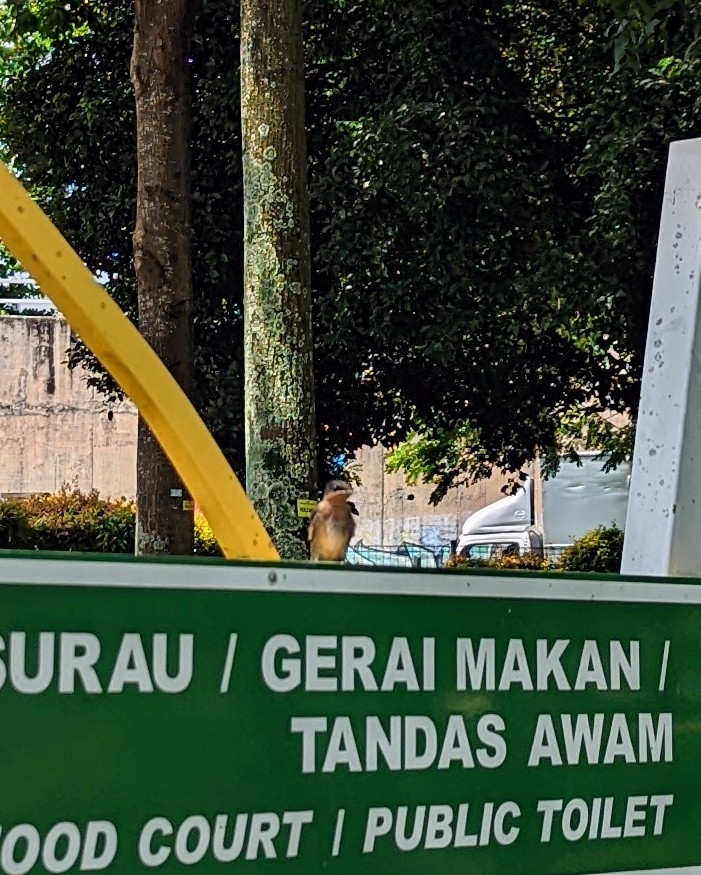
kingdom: Animalia
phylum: Chordata
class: Aves
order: Passeriformes
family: Hirundinidae
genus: Hirundo
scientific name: Hirundo tahitica
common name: Pacific swallow
